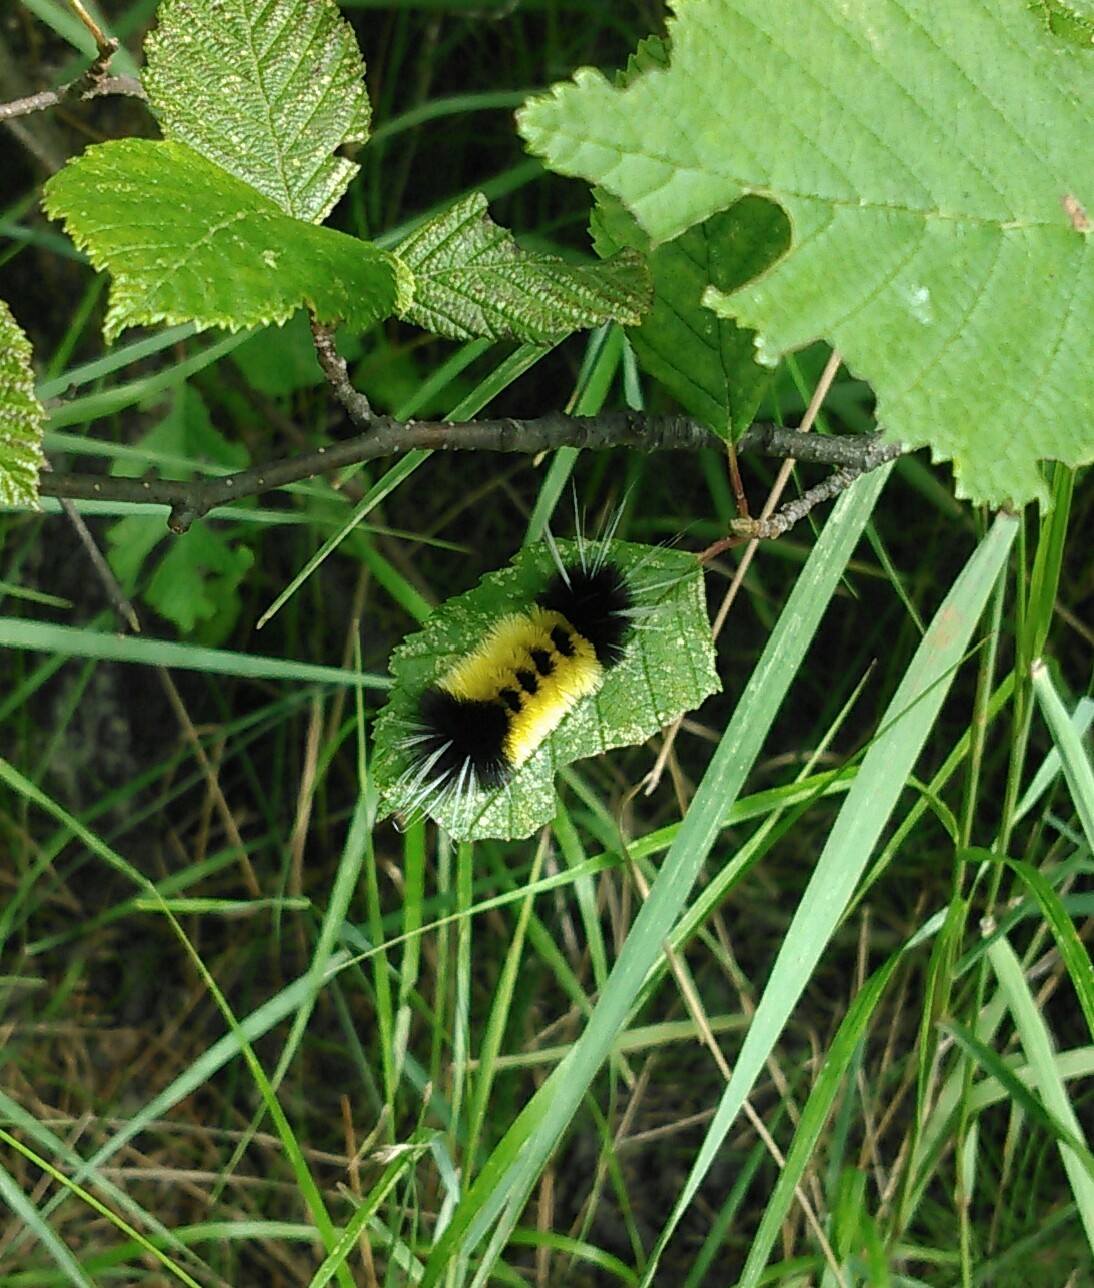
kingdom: Animalia
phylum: Arthropoda
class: Insecta
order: Lepidoptera
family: Erebidae
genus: Lophocampa
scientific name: Lophocampa maculata
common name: Spotted tussock moth
